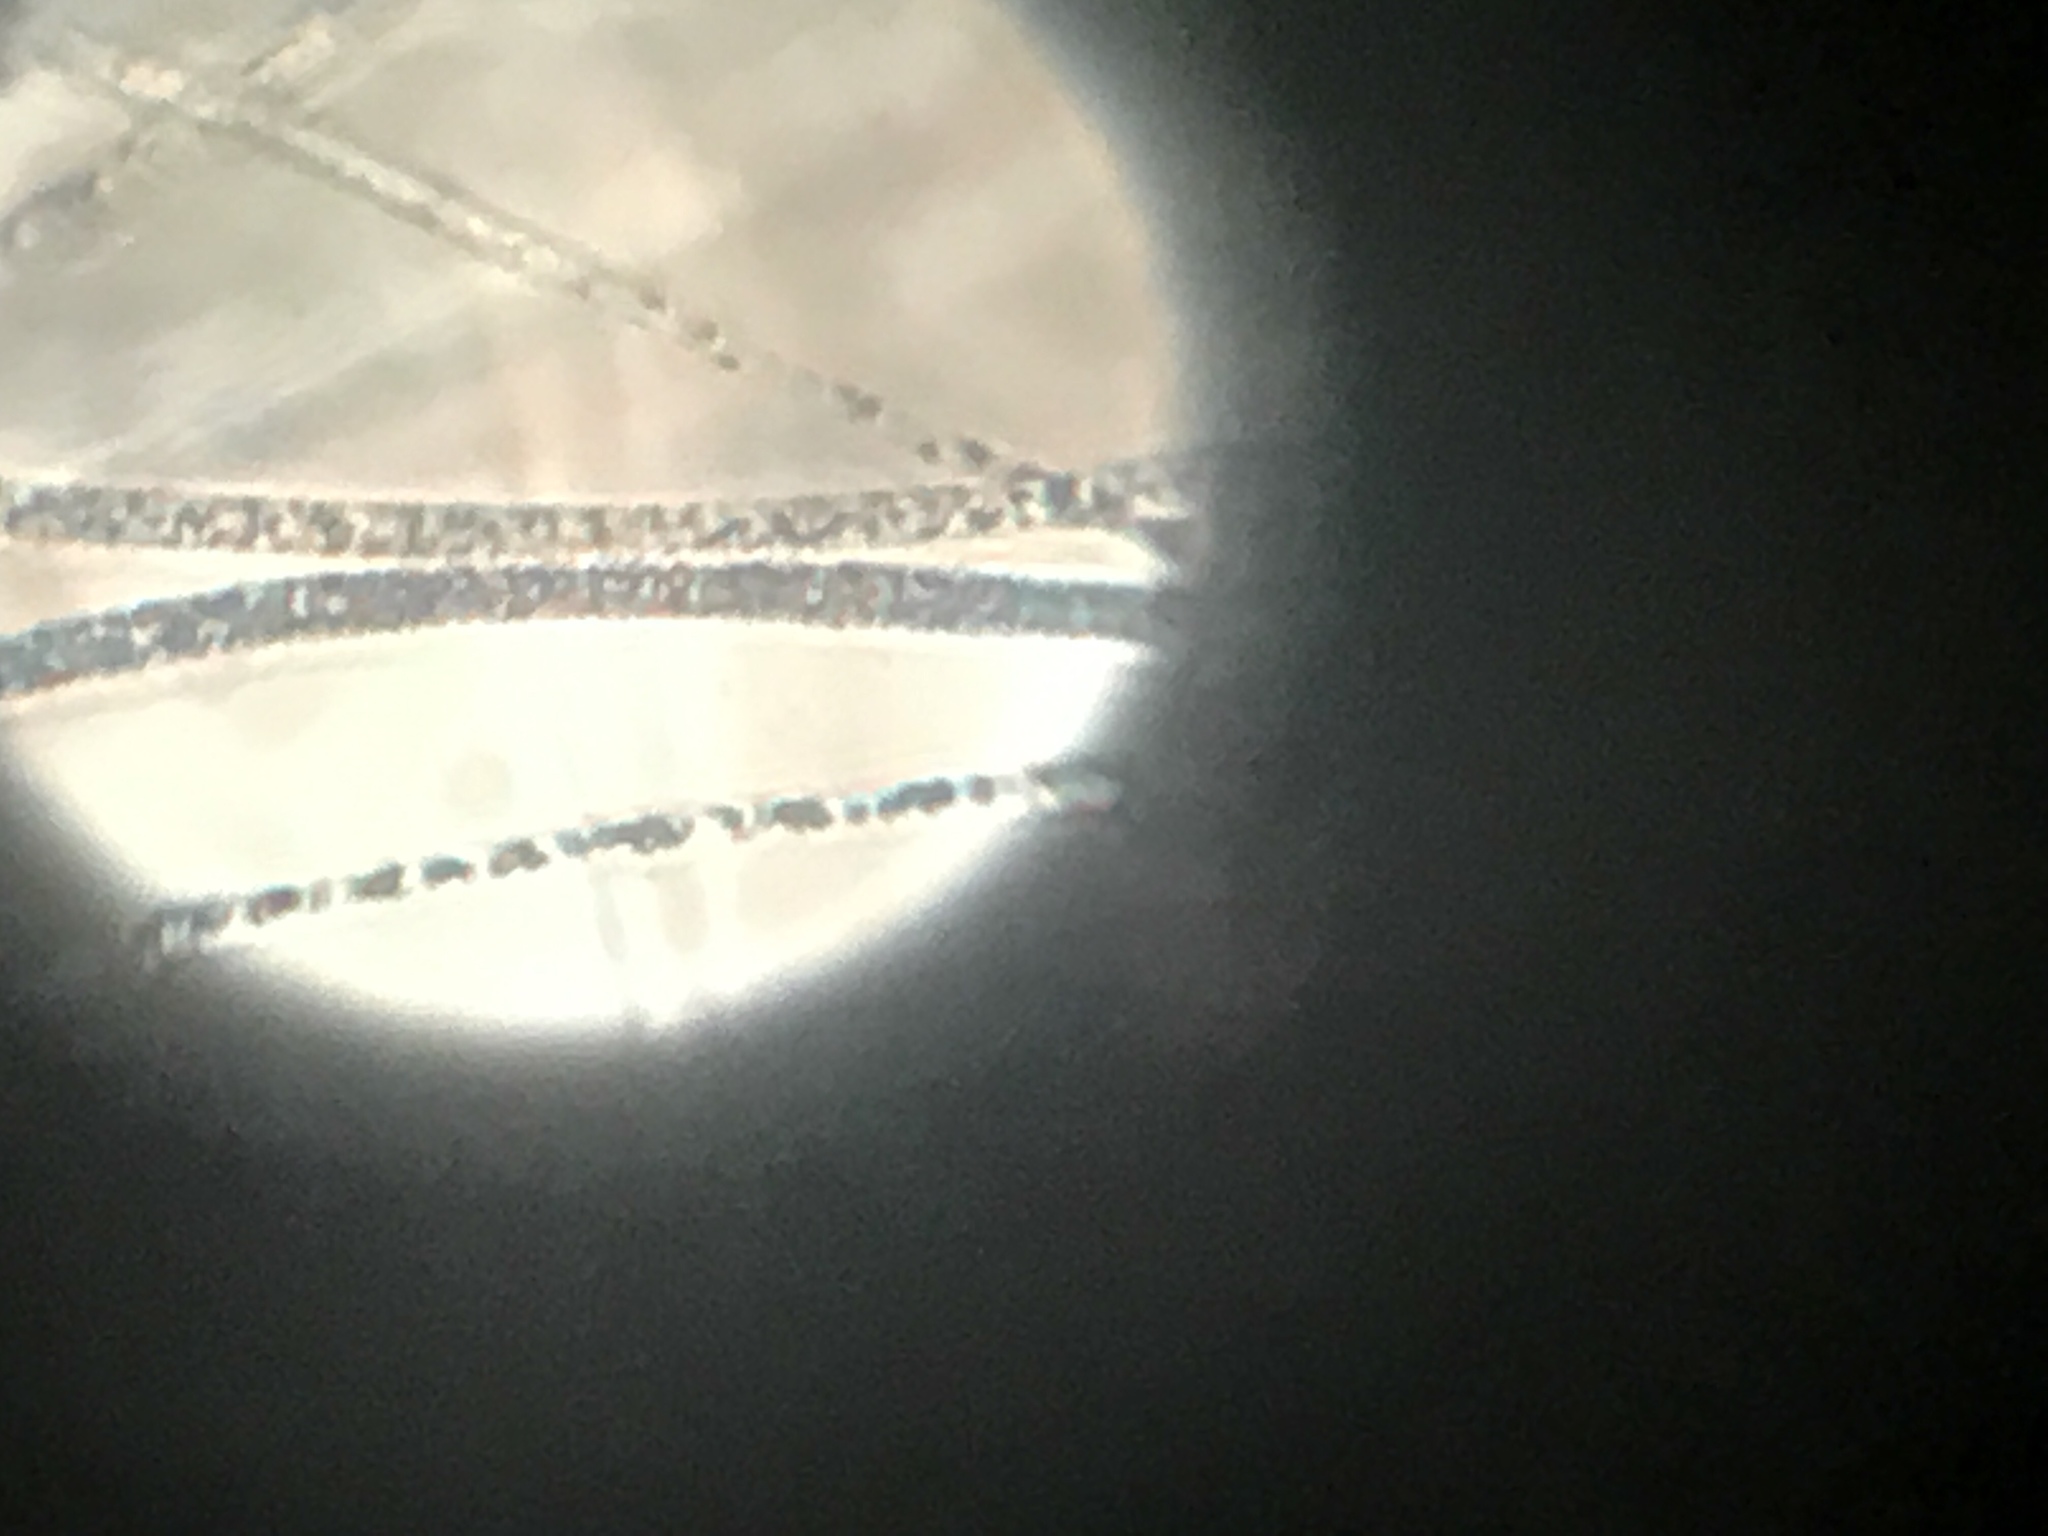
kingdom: Bacteria
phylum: Proteobacteria
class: Gammaproteobacteria
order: Beggiatoales
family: Beggiatoaceae
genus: Beggiatoa
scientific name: Beggiatoa
